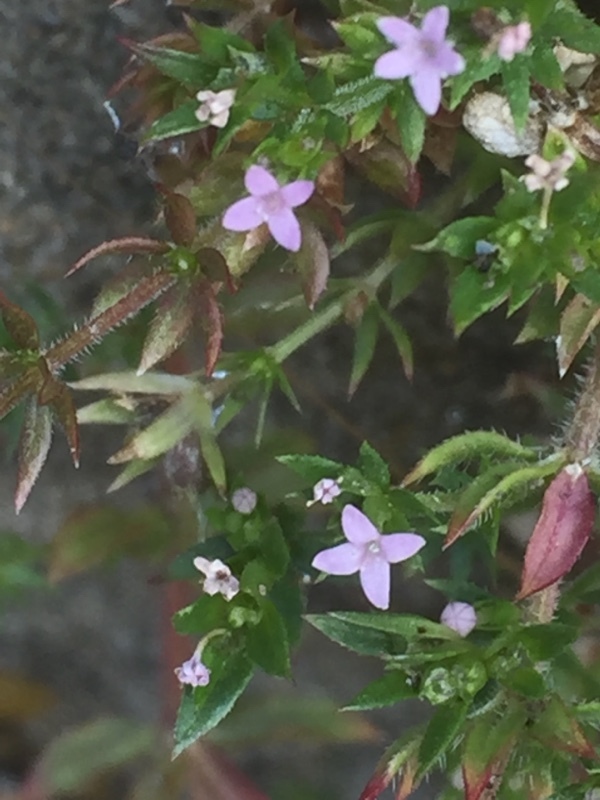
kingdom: Plantae
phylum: Tracheophyta
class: Magnoliopsida
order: Gentianales
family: Rubiaceae
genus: Sherardia
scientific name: Sherardia arvensis
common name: Field madder
